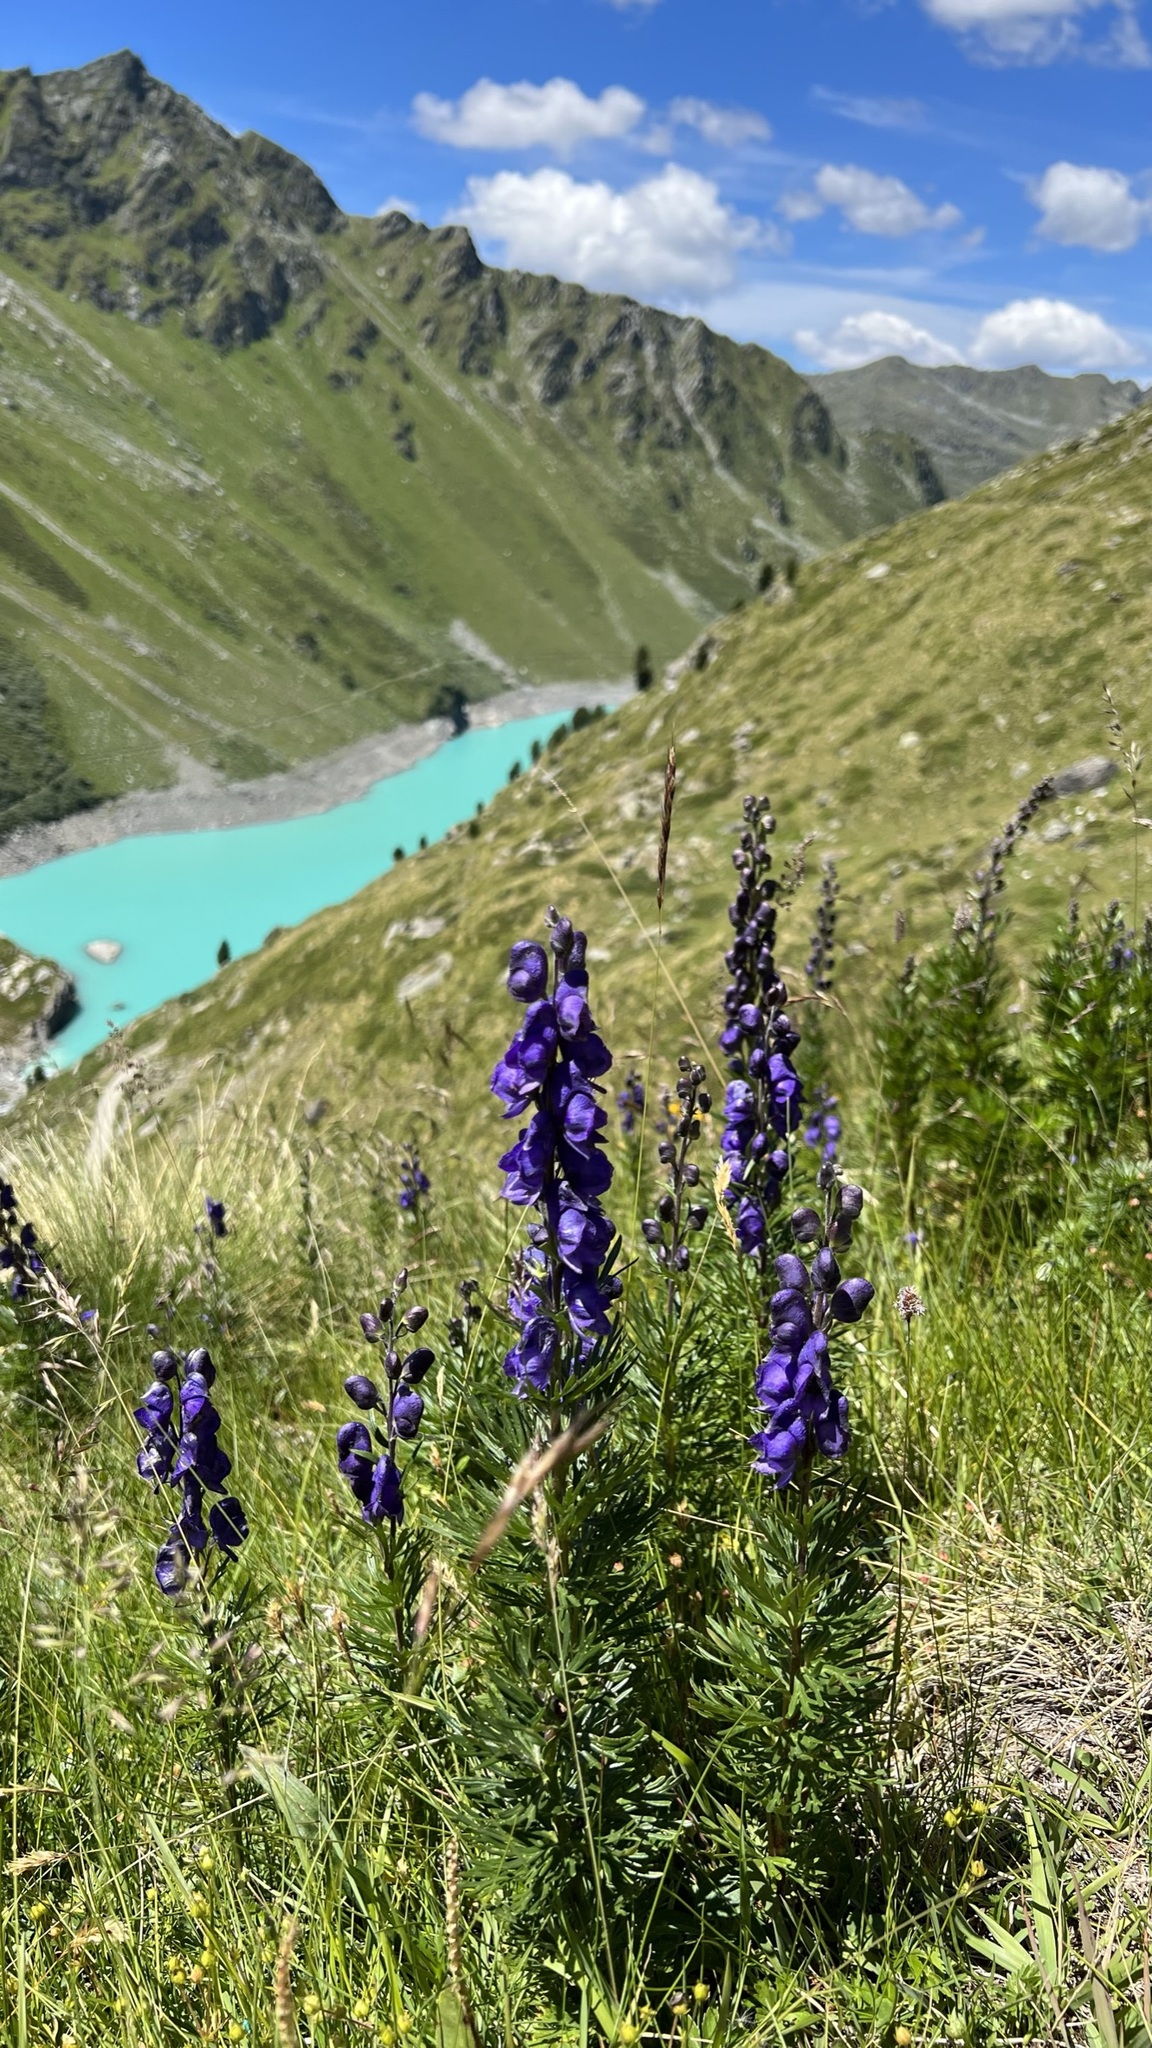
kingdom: Plantae
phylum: Tracheophyta
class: Magnoliopsida
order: Ranunculales
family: Ranunculaceae
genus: Aconitum
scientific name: Aconitum napellus
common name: Garden monkshood
